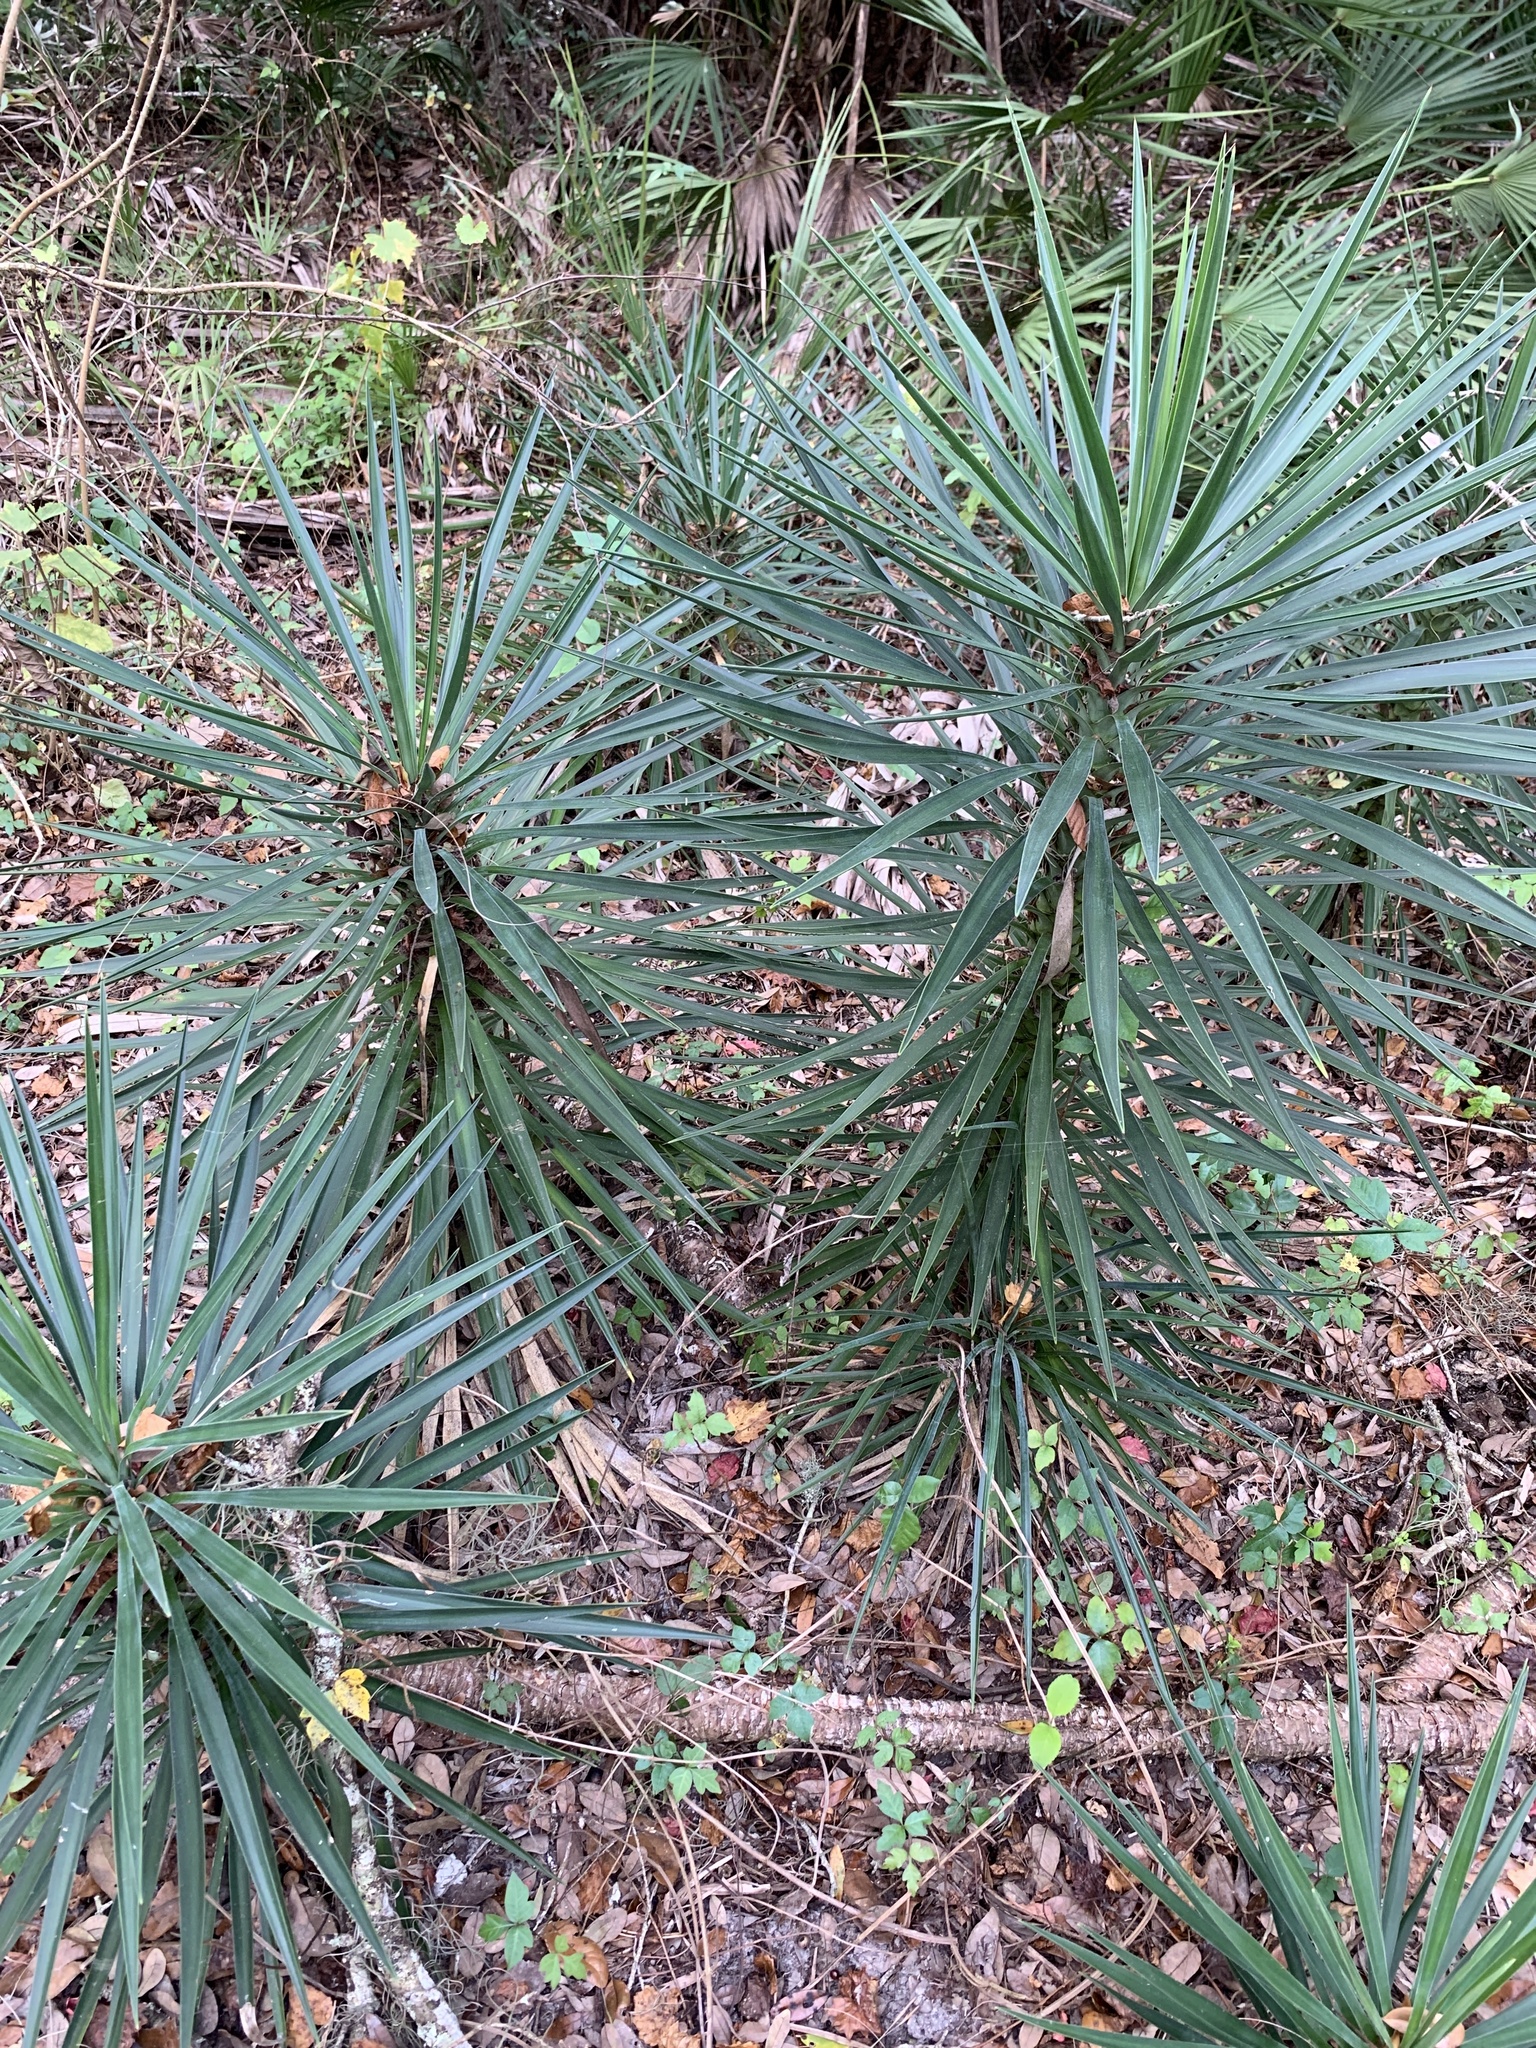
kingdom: Plantae
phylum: Tracheophyta
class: Liliopsida
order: Asparagales
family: Asparagaceae
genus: Yucca
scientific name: Yucca aloifolia
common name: Aloe yucca
